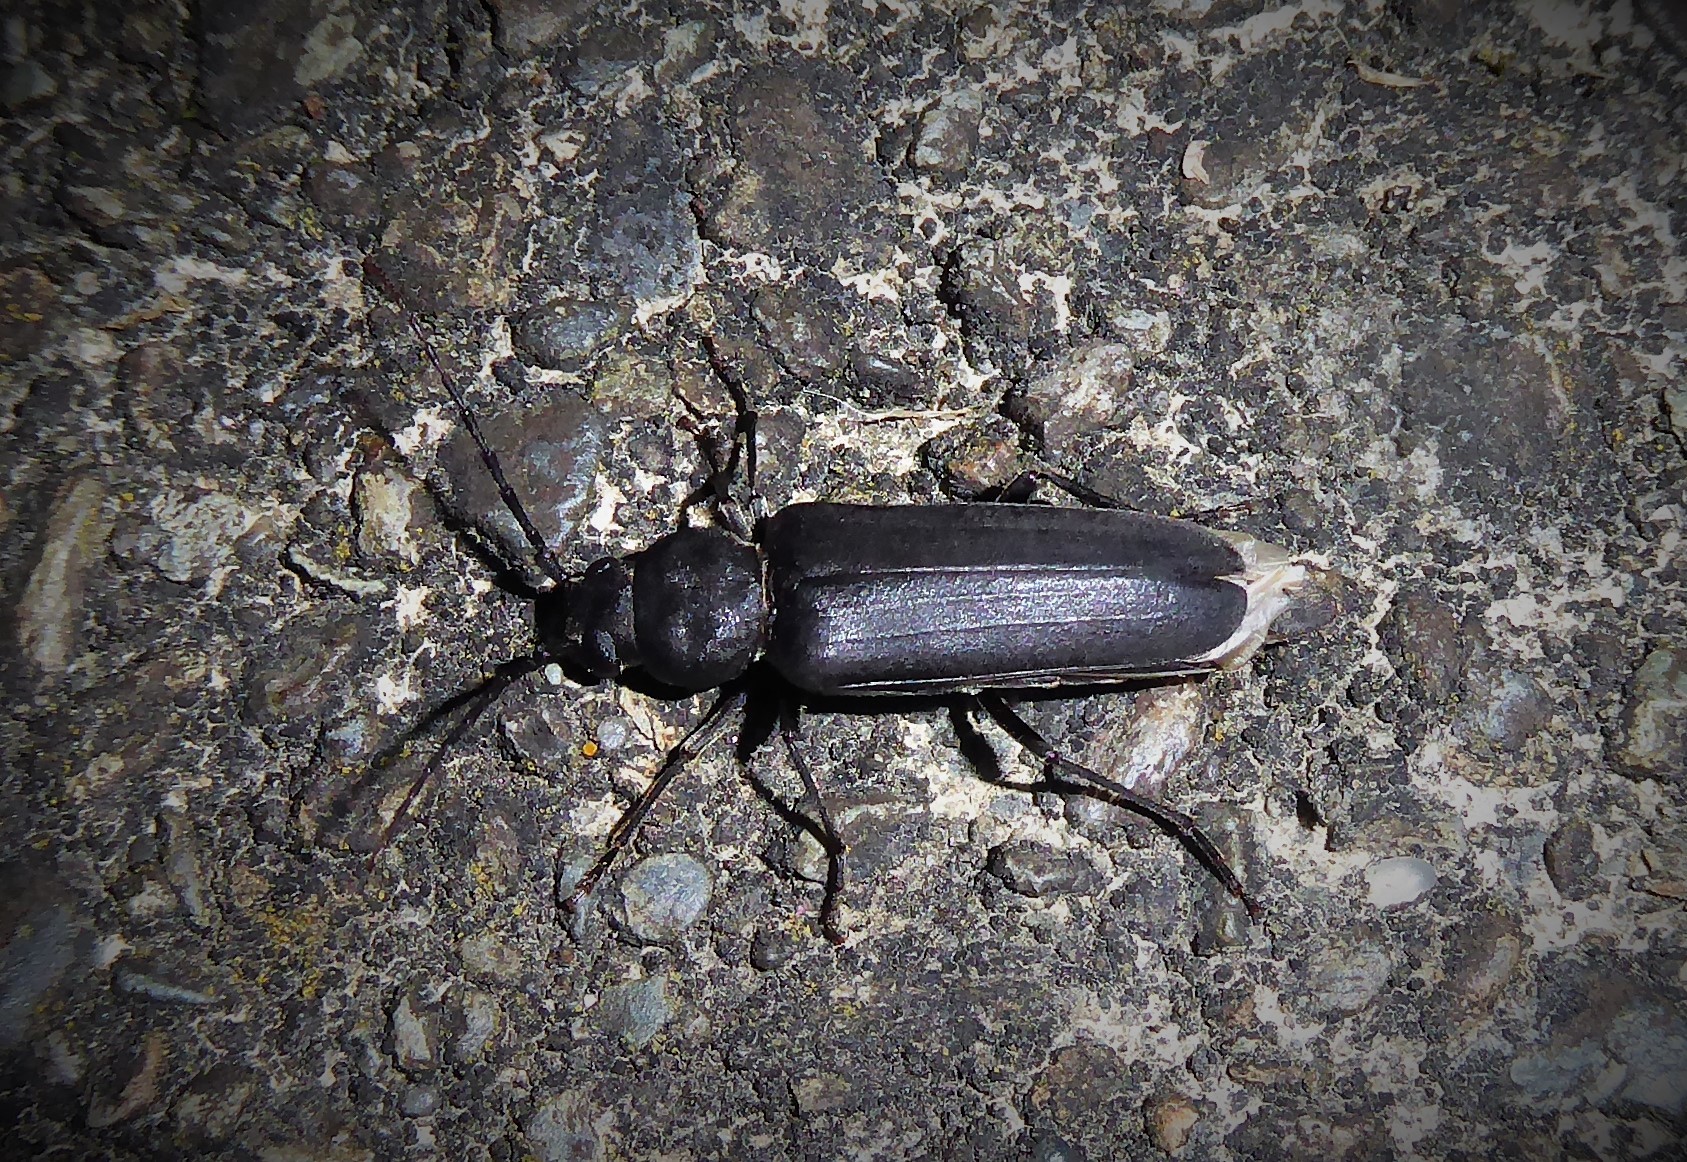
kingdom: Animalia
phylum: Arthropoda
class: Insecta
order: Coleoptera
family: Cerambycidae
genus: Arhopalus
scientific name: Arhopalus ferus
